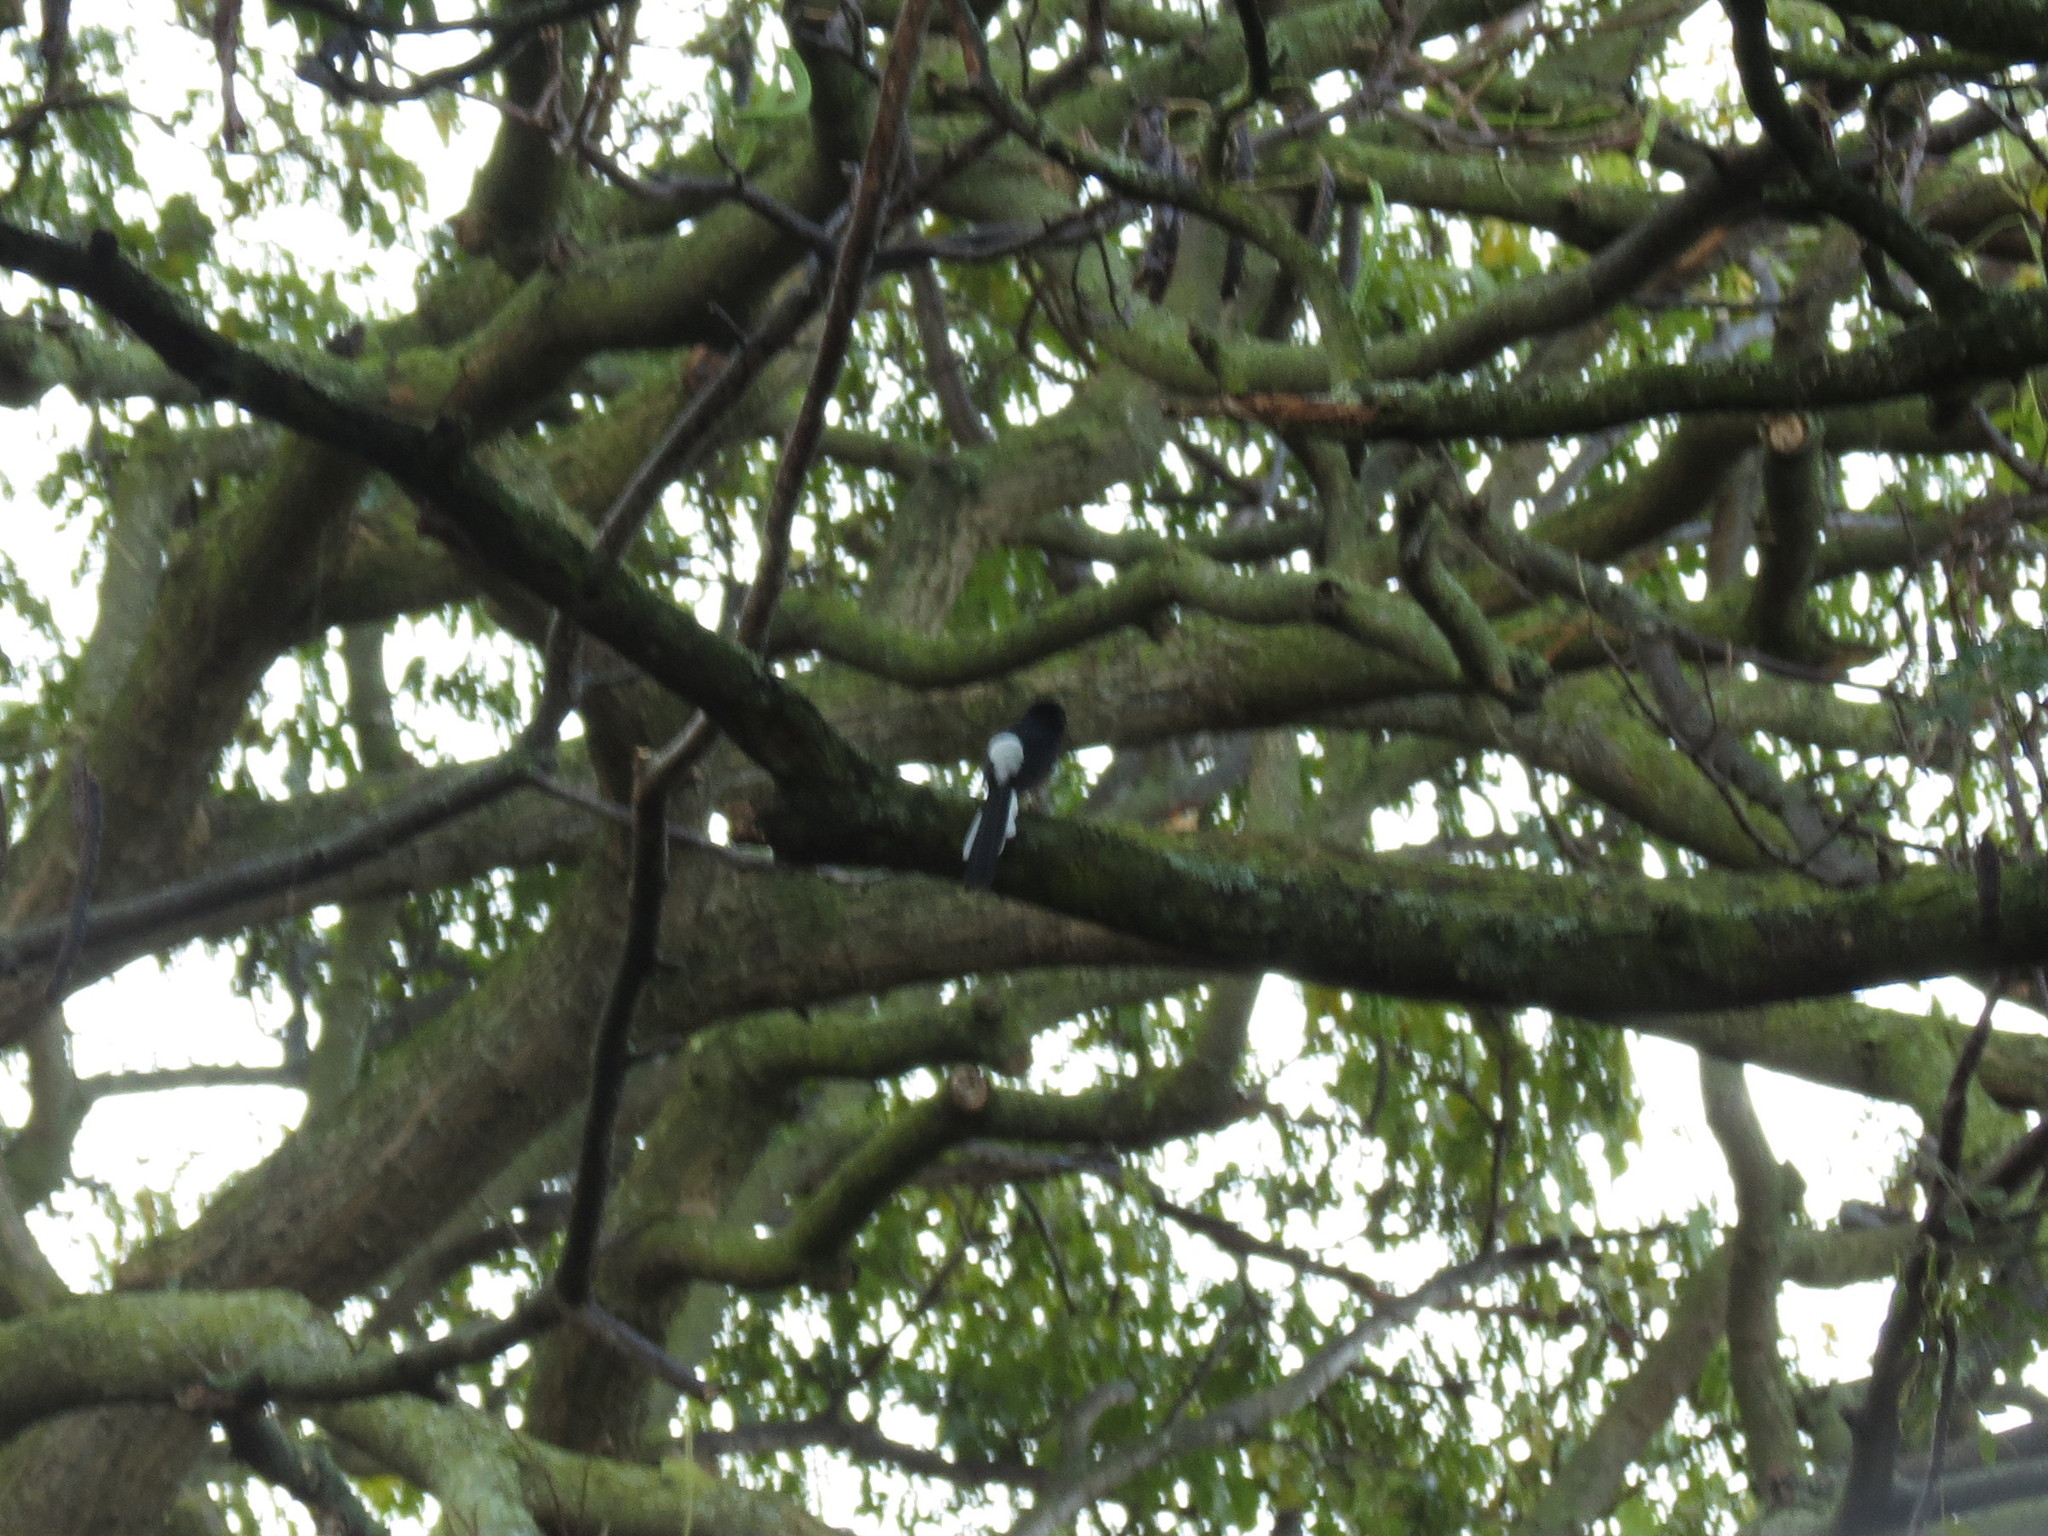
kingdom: Animalia
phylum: Chordata
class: Aves
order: Passeriformes
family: Muscicapidae
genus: Copsychus
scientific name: Copsychus malabaricus
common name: White-rumped shama
